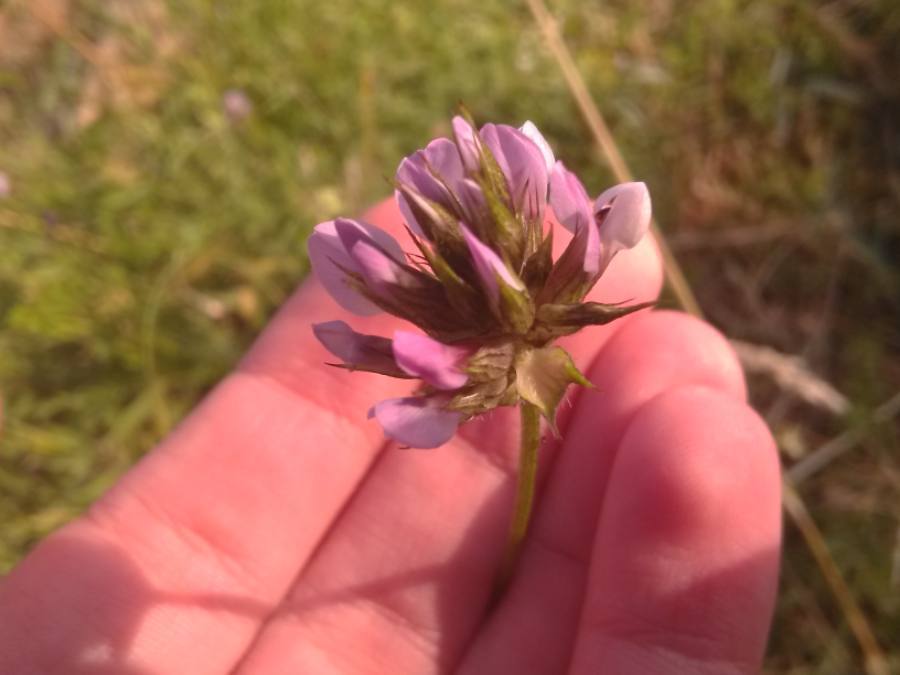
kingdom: Plantae
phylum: Tracheophyta
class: Magnoliopsida
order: Fabales
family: Fabaceae
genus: Bituminaria
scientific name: Bituminaria bituminosa
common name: Arabian pea
